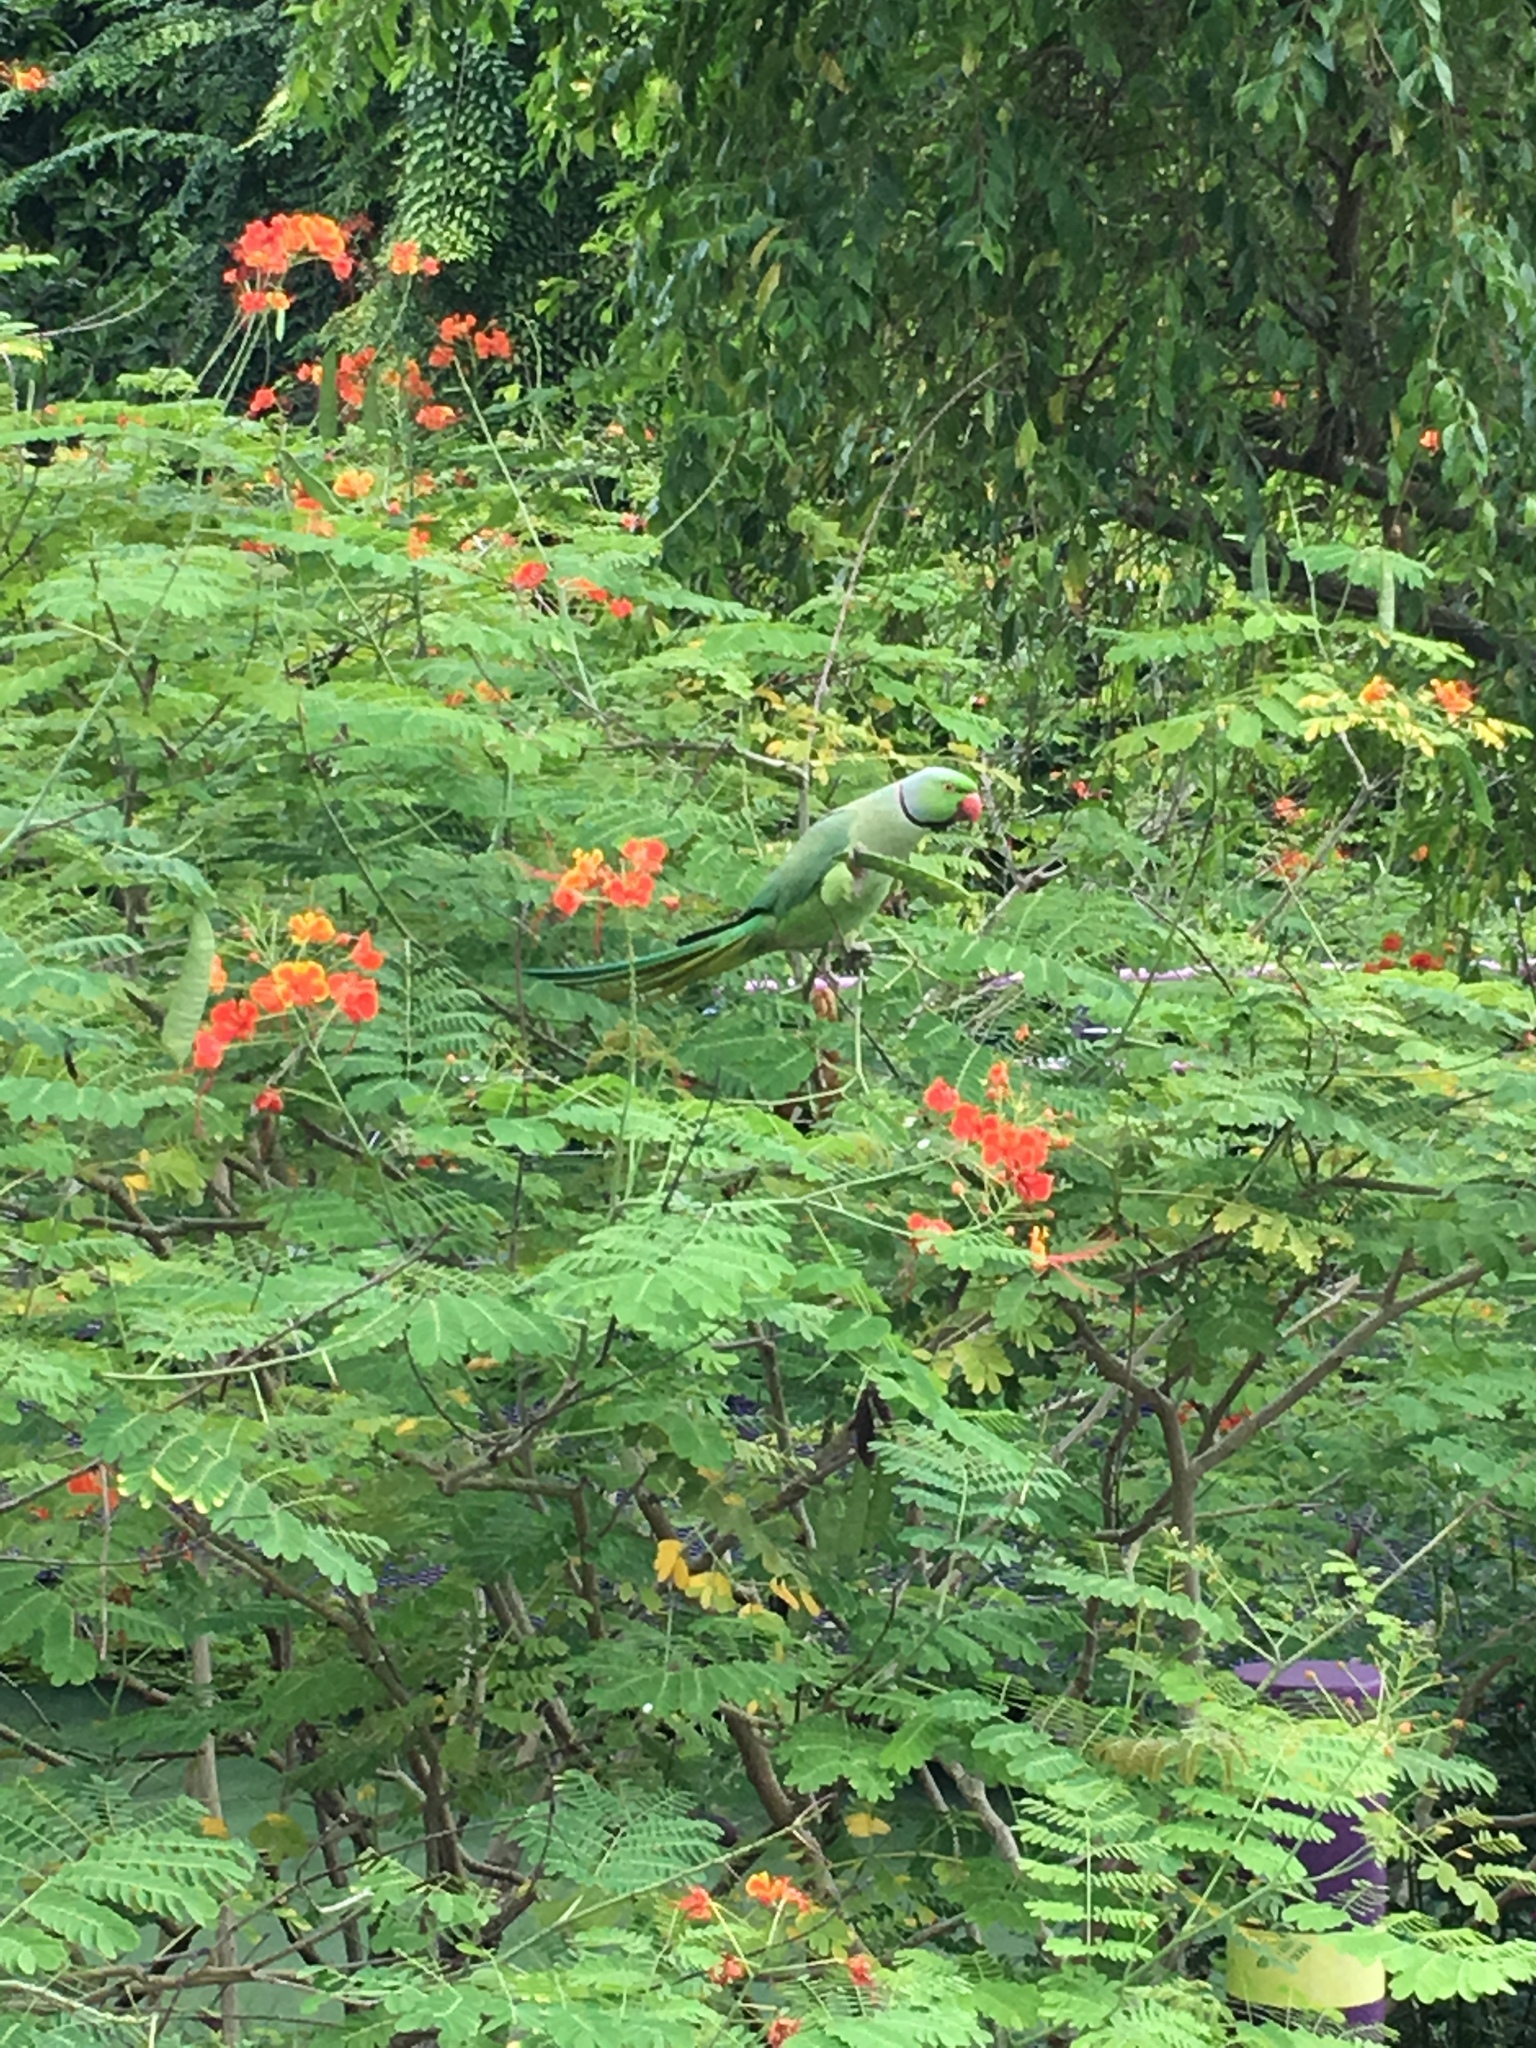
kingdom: Animalia
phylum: Chordata
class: Aves
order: Psittaciformes
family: Psittacidae
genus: Psittacula
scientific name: Psittacula krameri
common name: Rose-ringed parakeet
